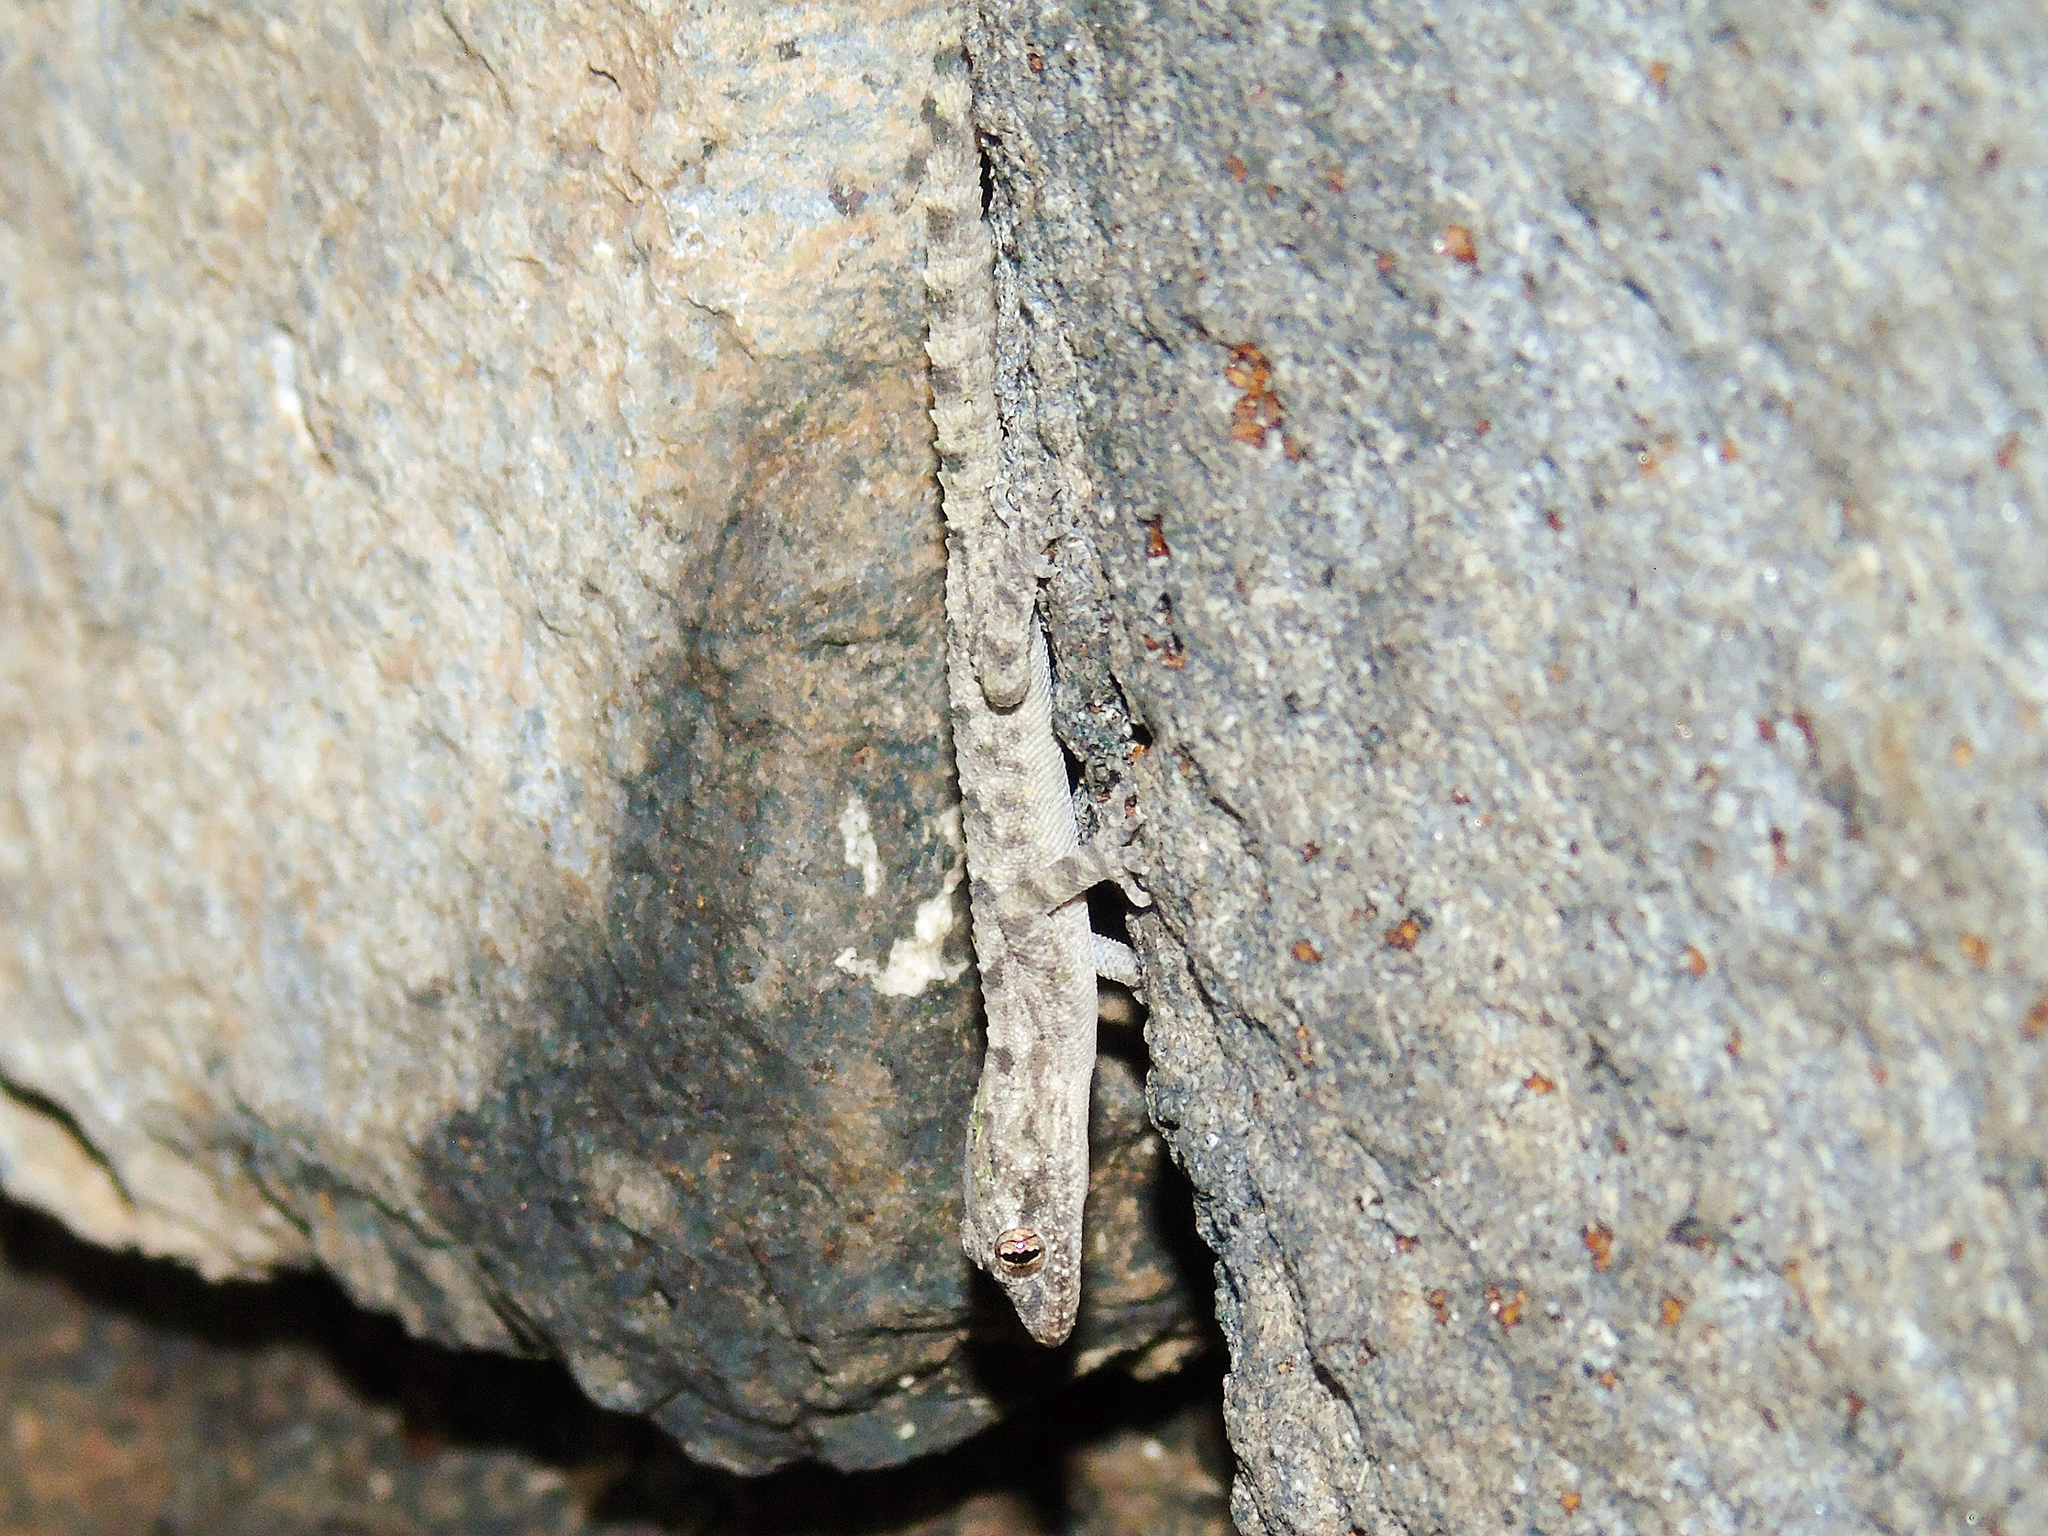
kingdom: Animalia
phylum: Chordata
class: Squamata
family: Gekkonidae
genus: Mediodactylus
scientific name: Mediodactylus heterocercus
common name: Asia minor thin-toed gecko
